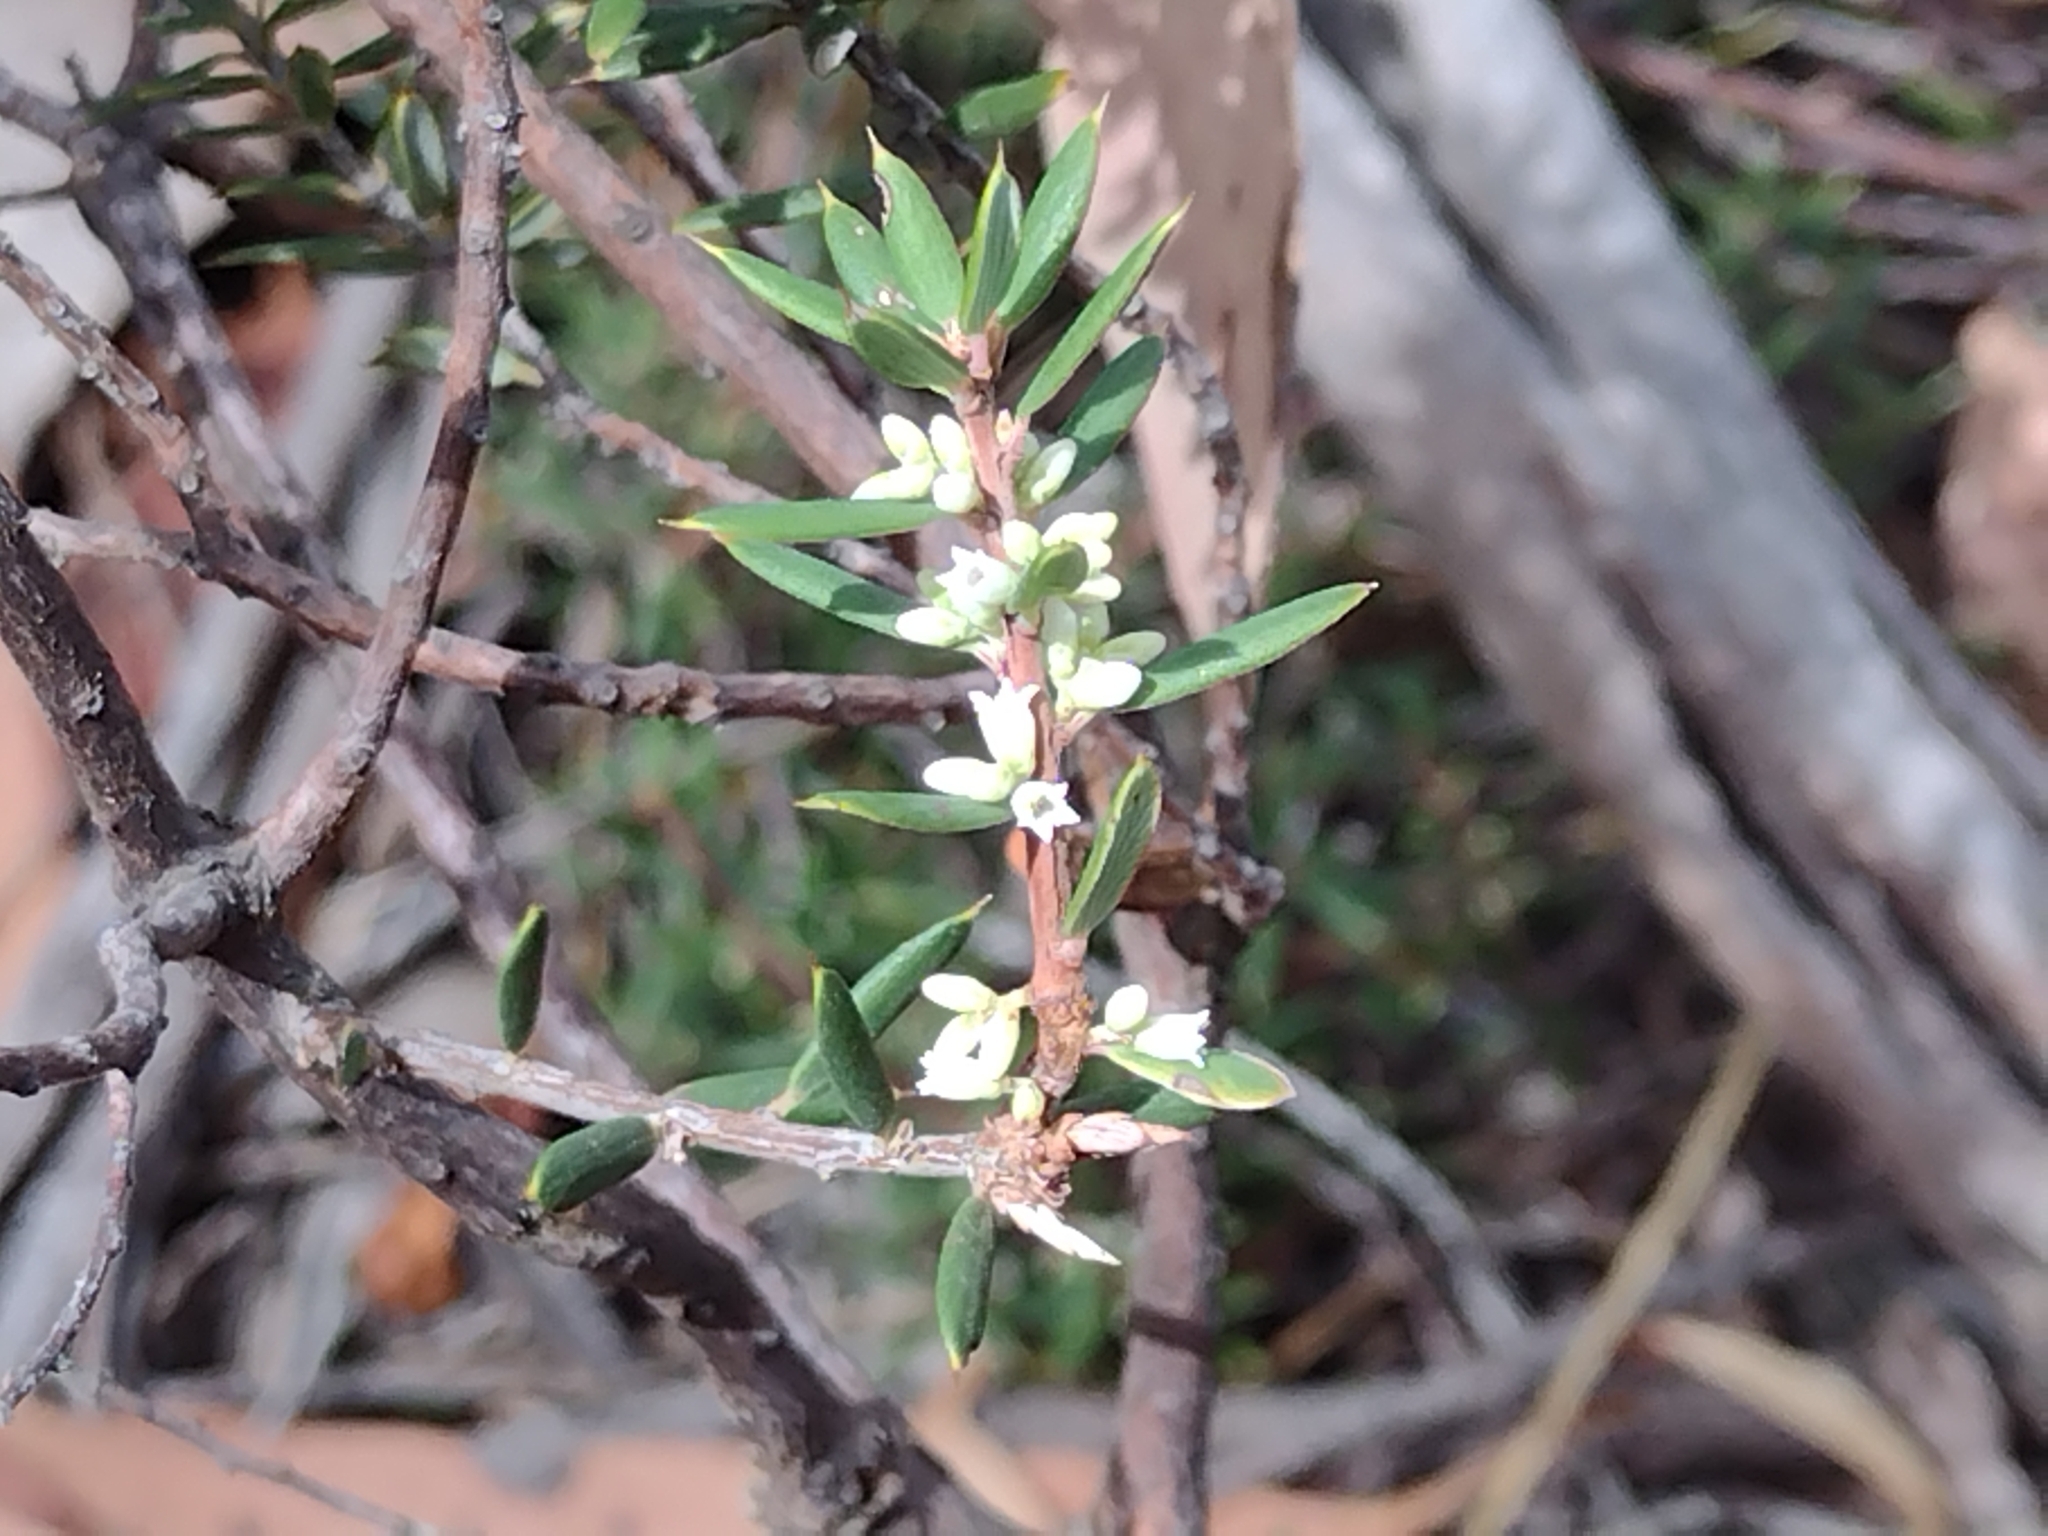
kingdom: Plantae
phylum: Tracheophyta
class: Magnoliopsida
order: Ericales
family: Ericaceae
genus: Monotoca
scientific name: Monotoca scoparia
